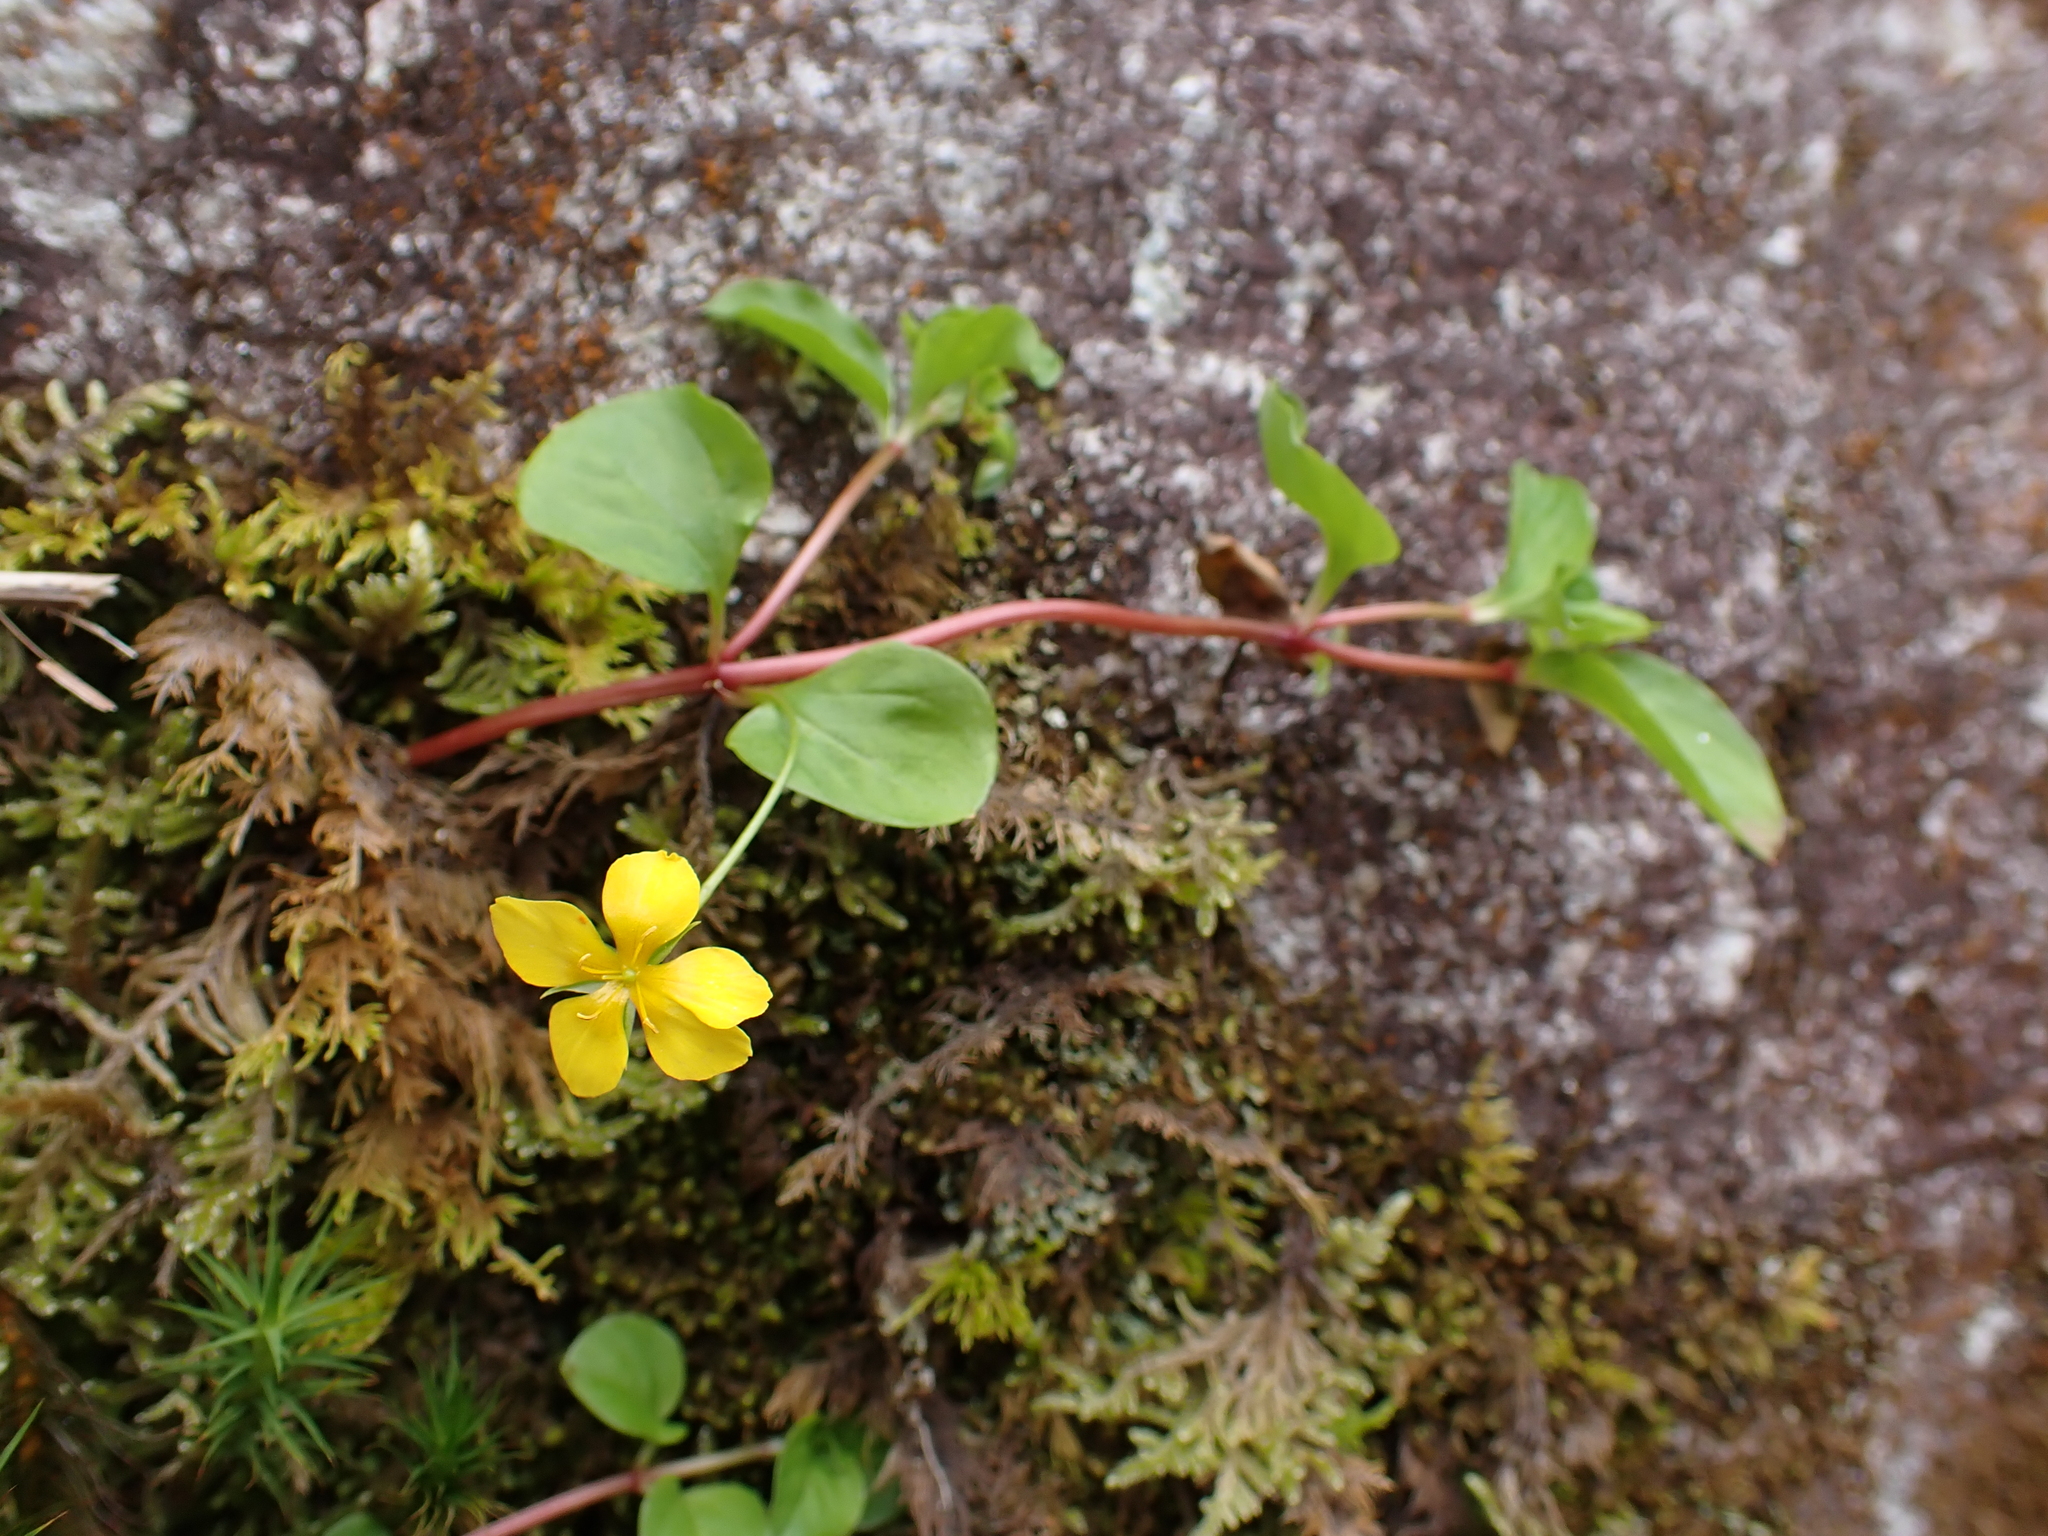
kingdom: Plantae
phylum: Tracheophyta
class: Magnoliopsida
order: Ericales
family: Primulaceae
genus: Lysimachia
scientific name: Lysimachia nemorum
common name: Yellow pimpernel
